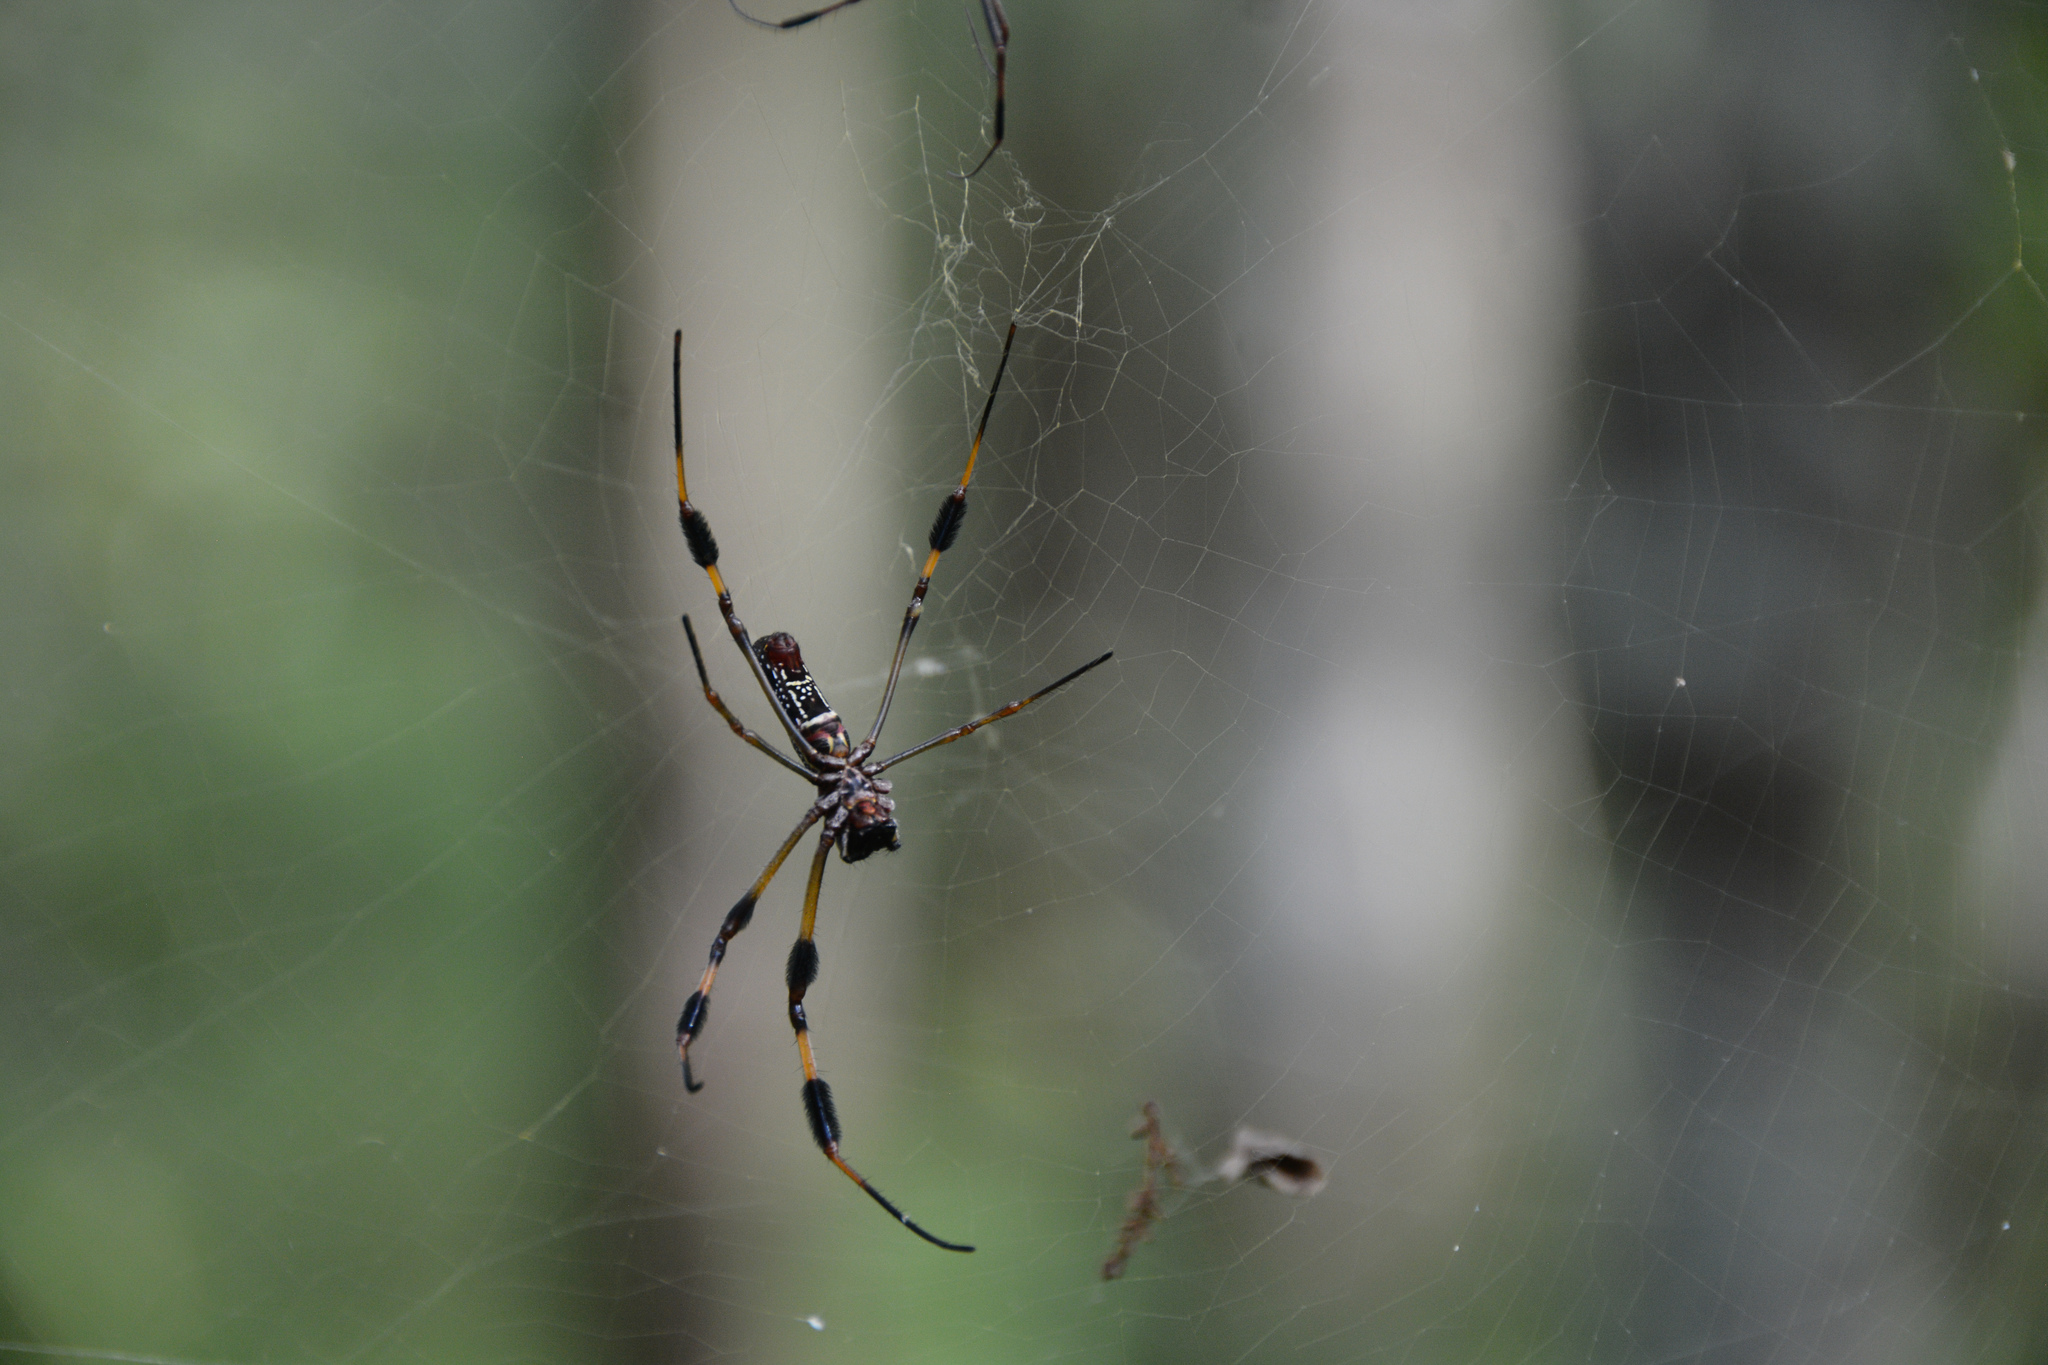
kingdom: Animalia
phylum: Arthropoda
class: Arachnida
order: Araneae
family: Araneidae
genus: Trichonephila
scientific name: Trichonephila clavipes
